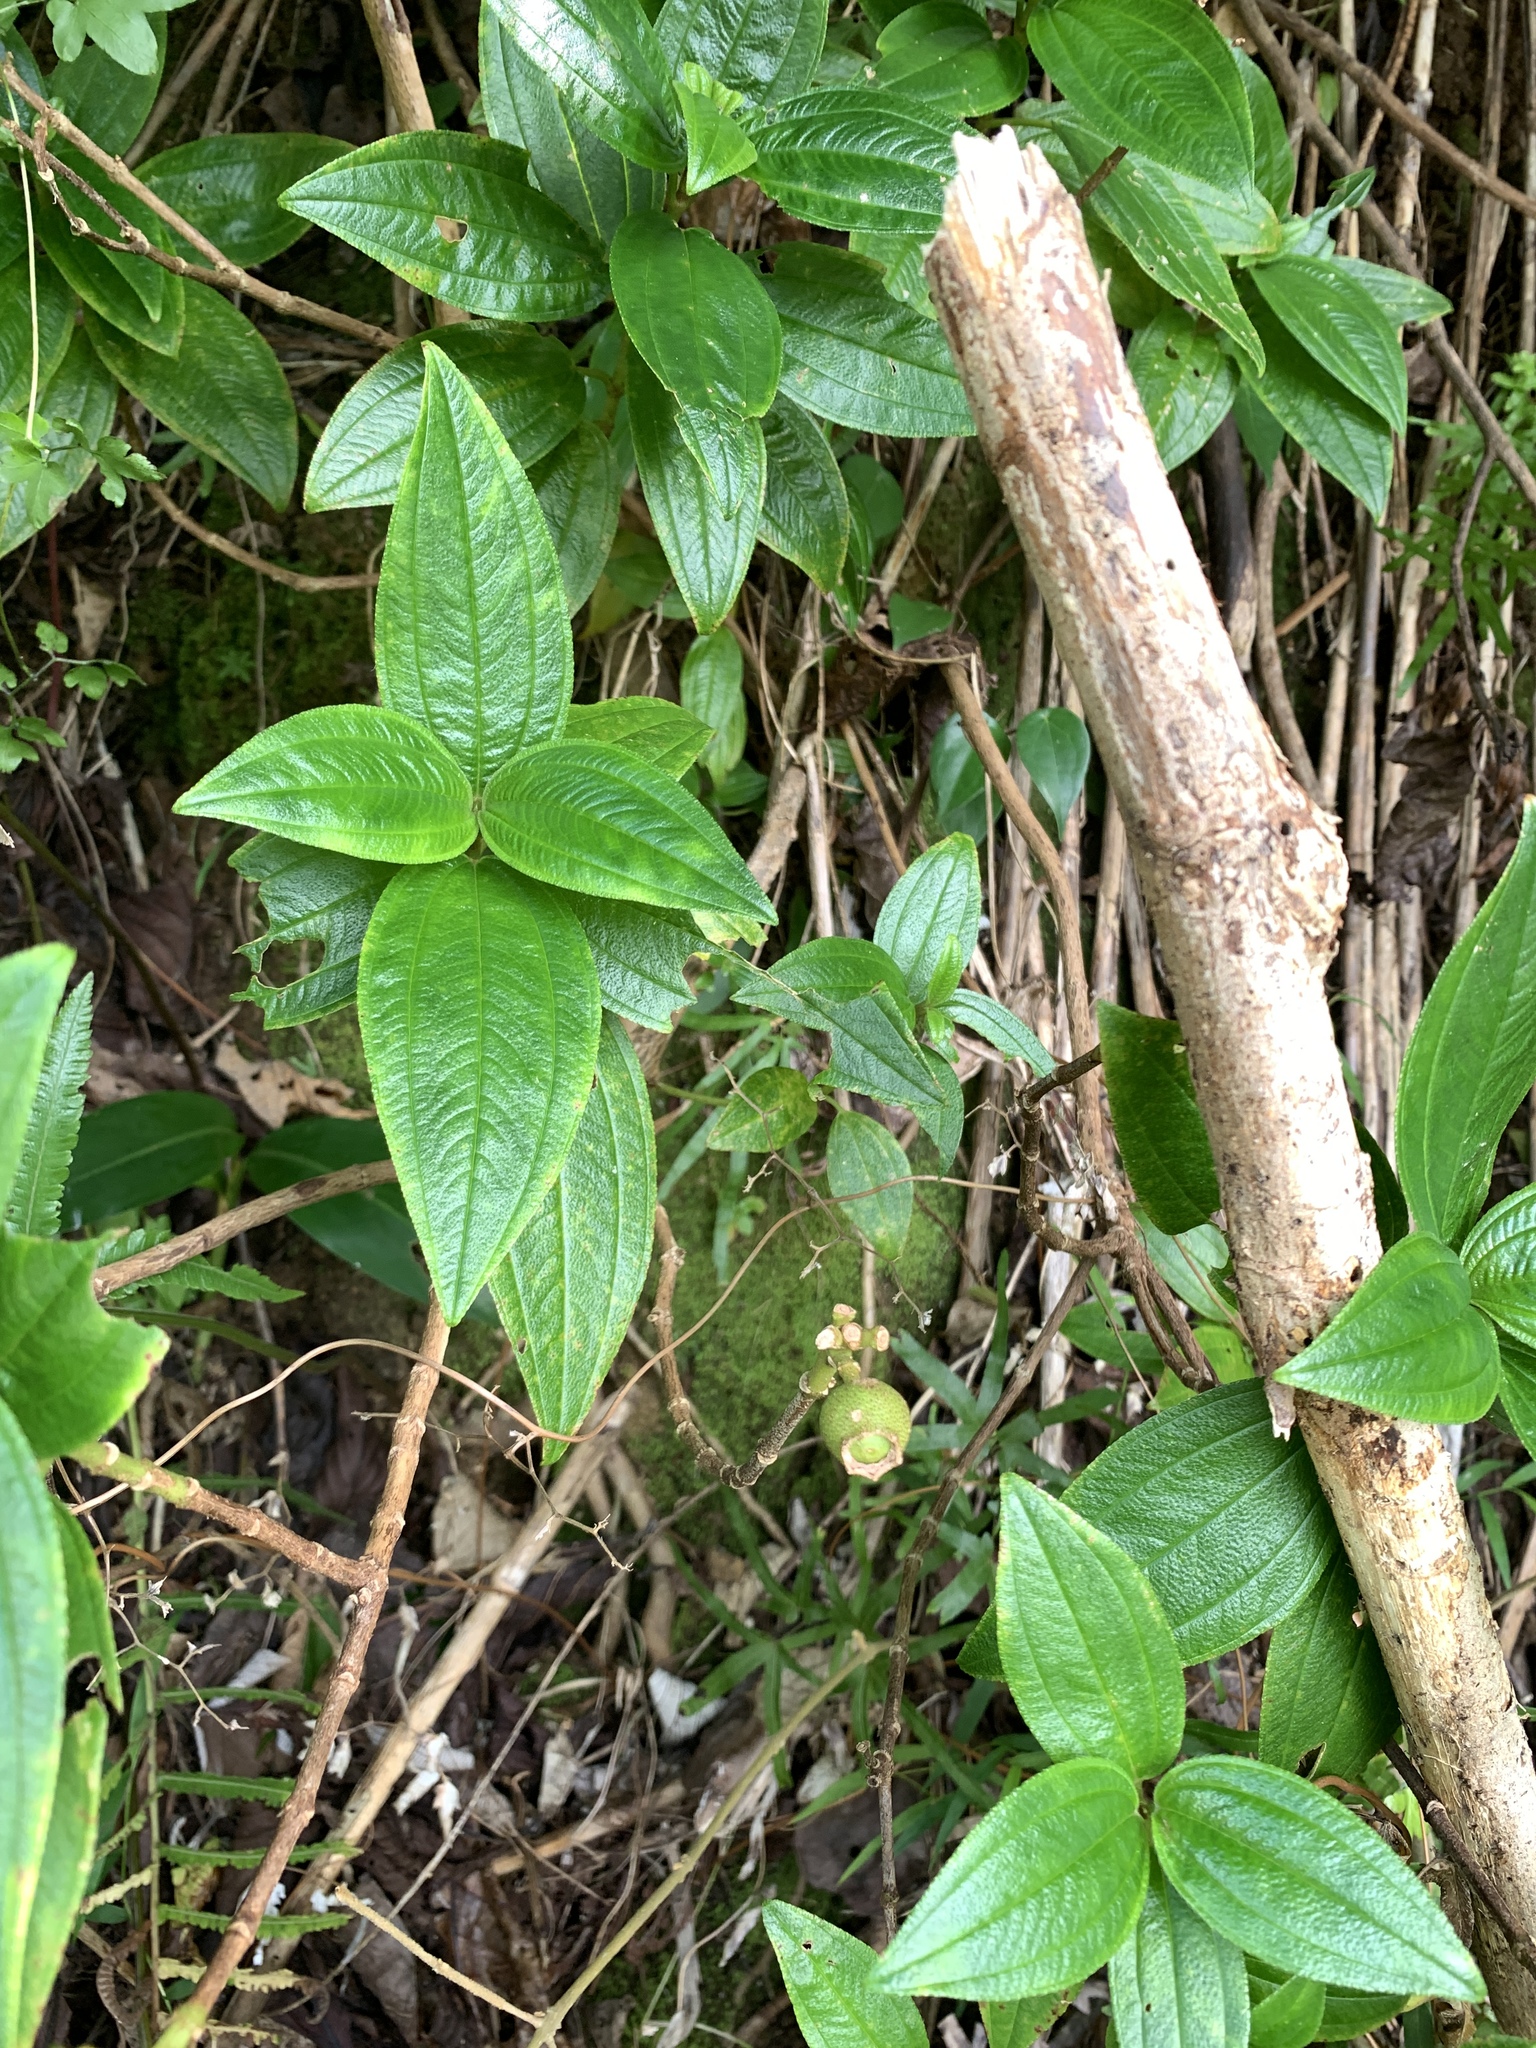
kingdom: Plantae
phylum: Tracheophyta
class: Magnoliopsida
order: Myrtales
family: Melastomataceae
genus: Melastoma
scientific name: Melastoma malabathricum
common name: Indian-rhododendron
